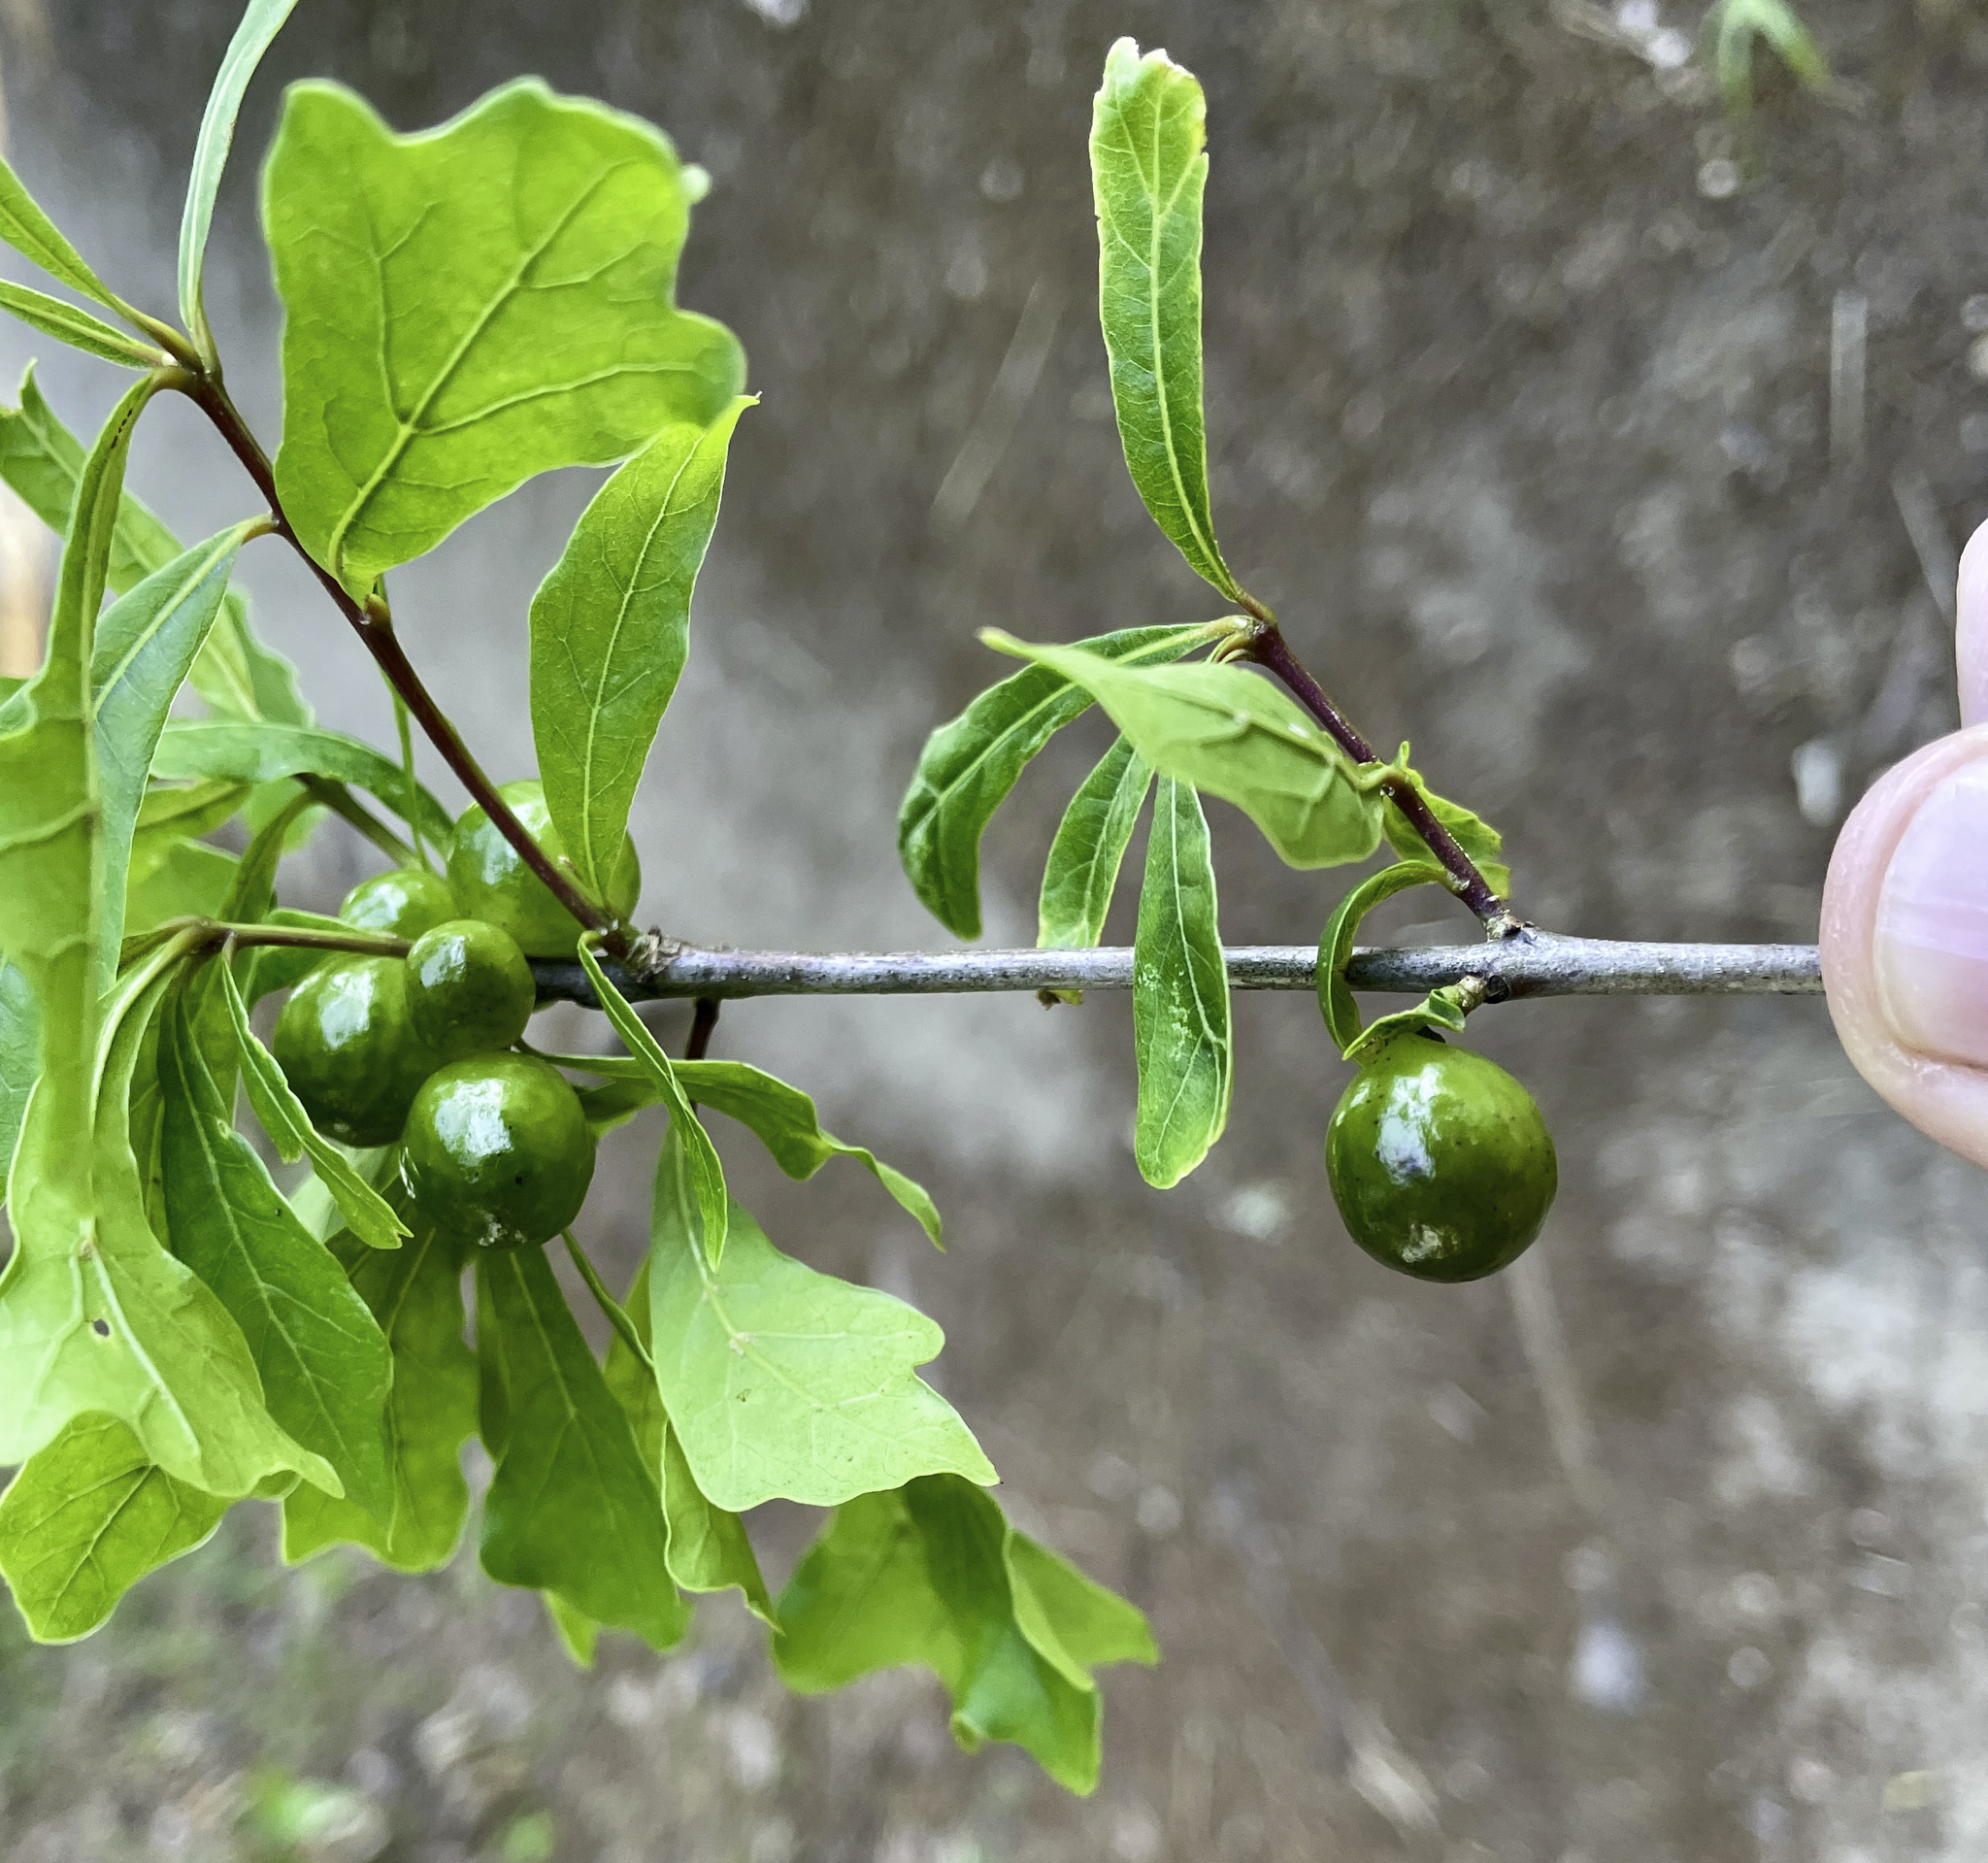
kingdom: Animalia
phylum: Arthropoda
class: Insecta
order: Hymenoptera
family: Cynipidae
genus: Amphibolips
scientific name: Amphibolips
